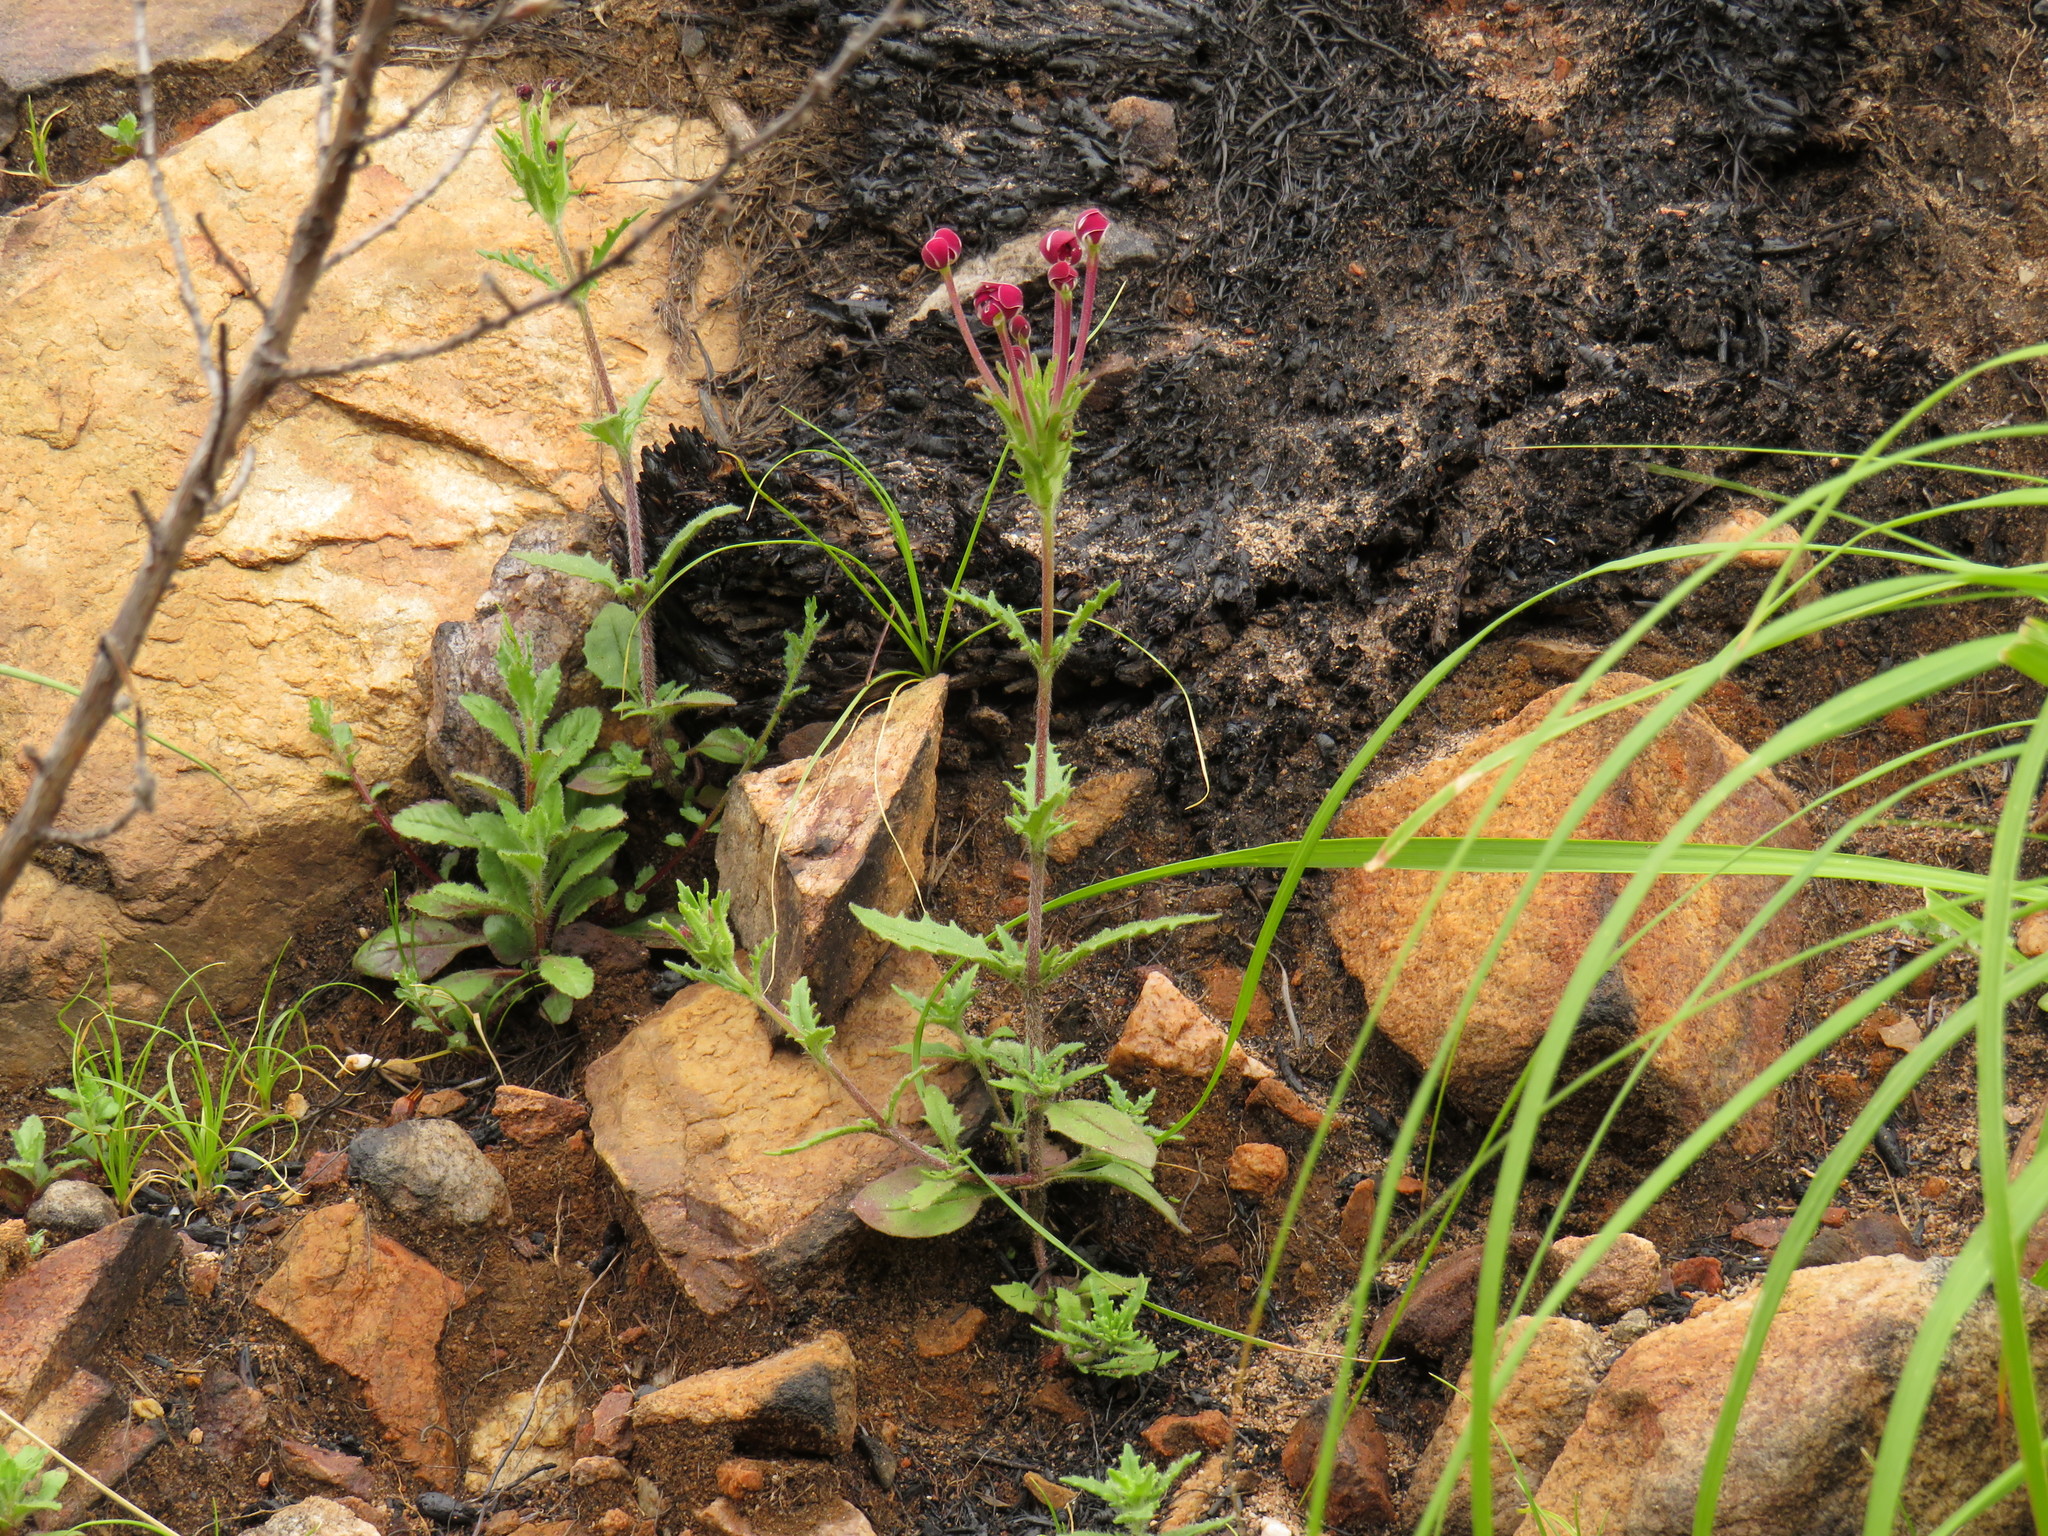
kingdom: Plantae
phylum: Tracheophyta
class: Magnoliopsida
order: Lamiales
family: Scrophulariaceae
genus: Zaluzianskya
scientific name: Zaluzianskya capensis
